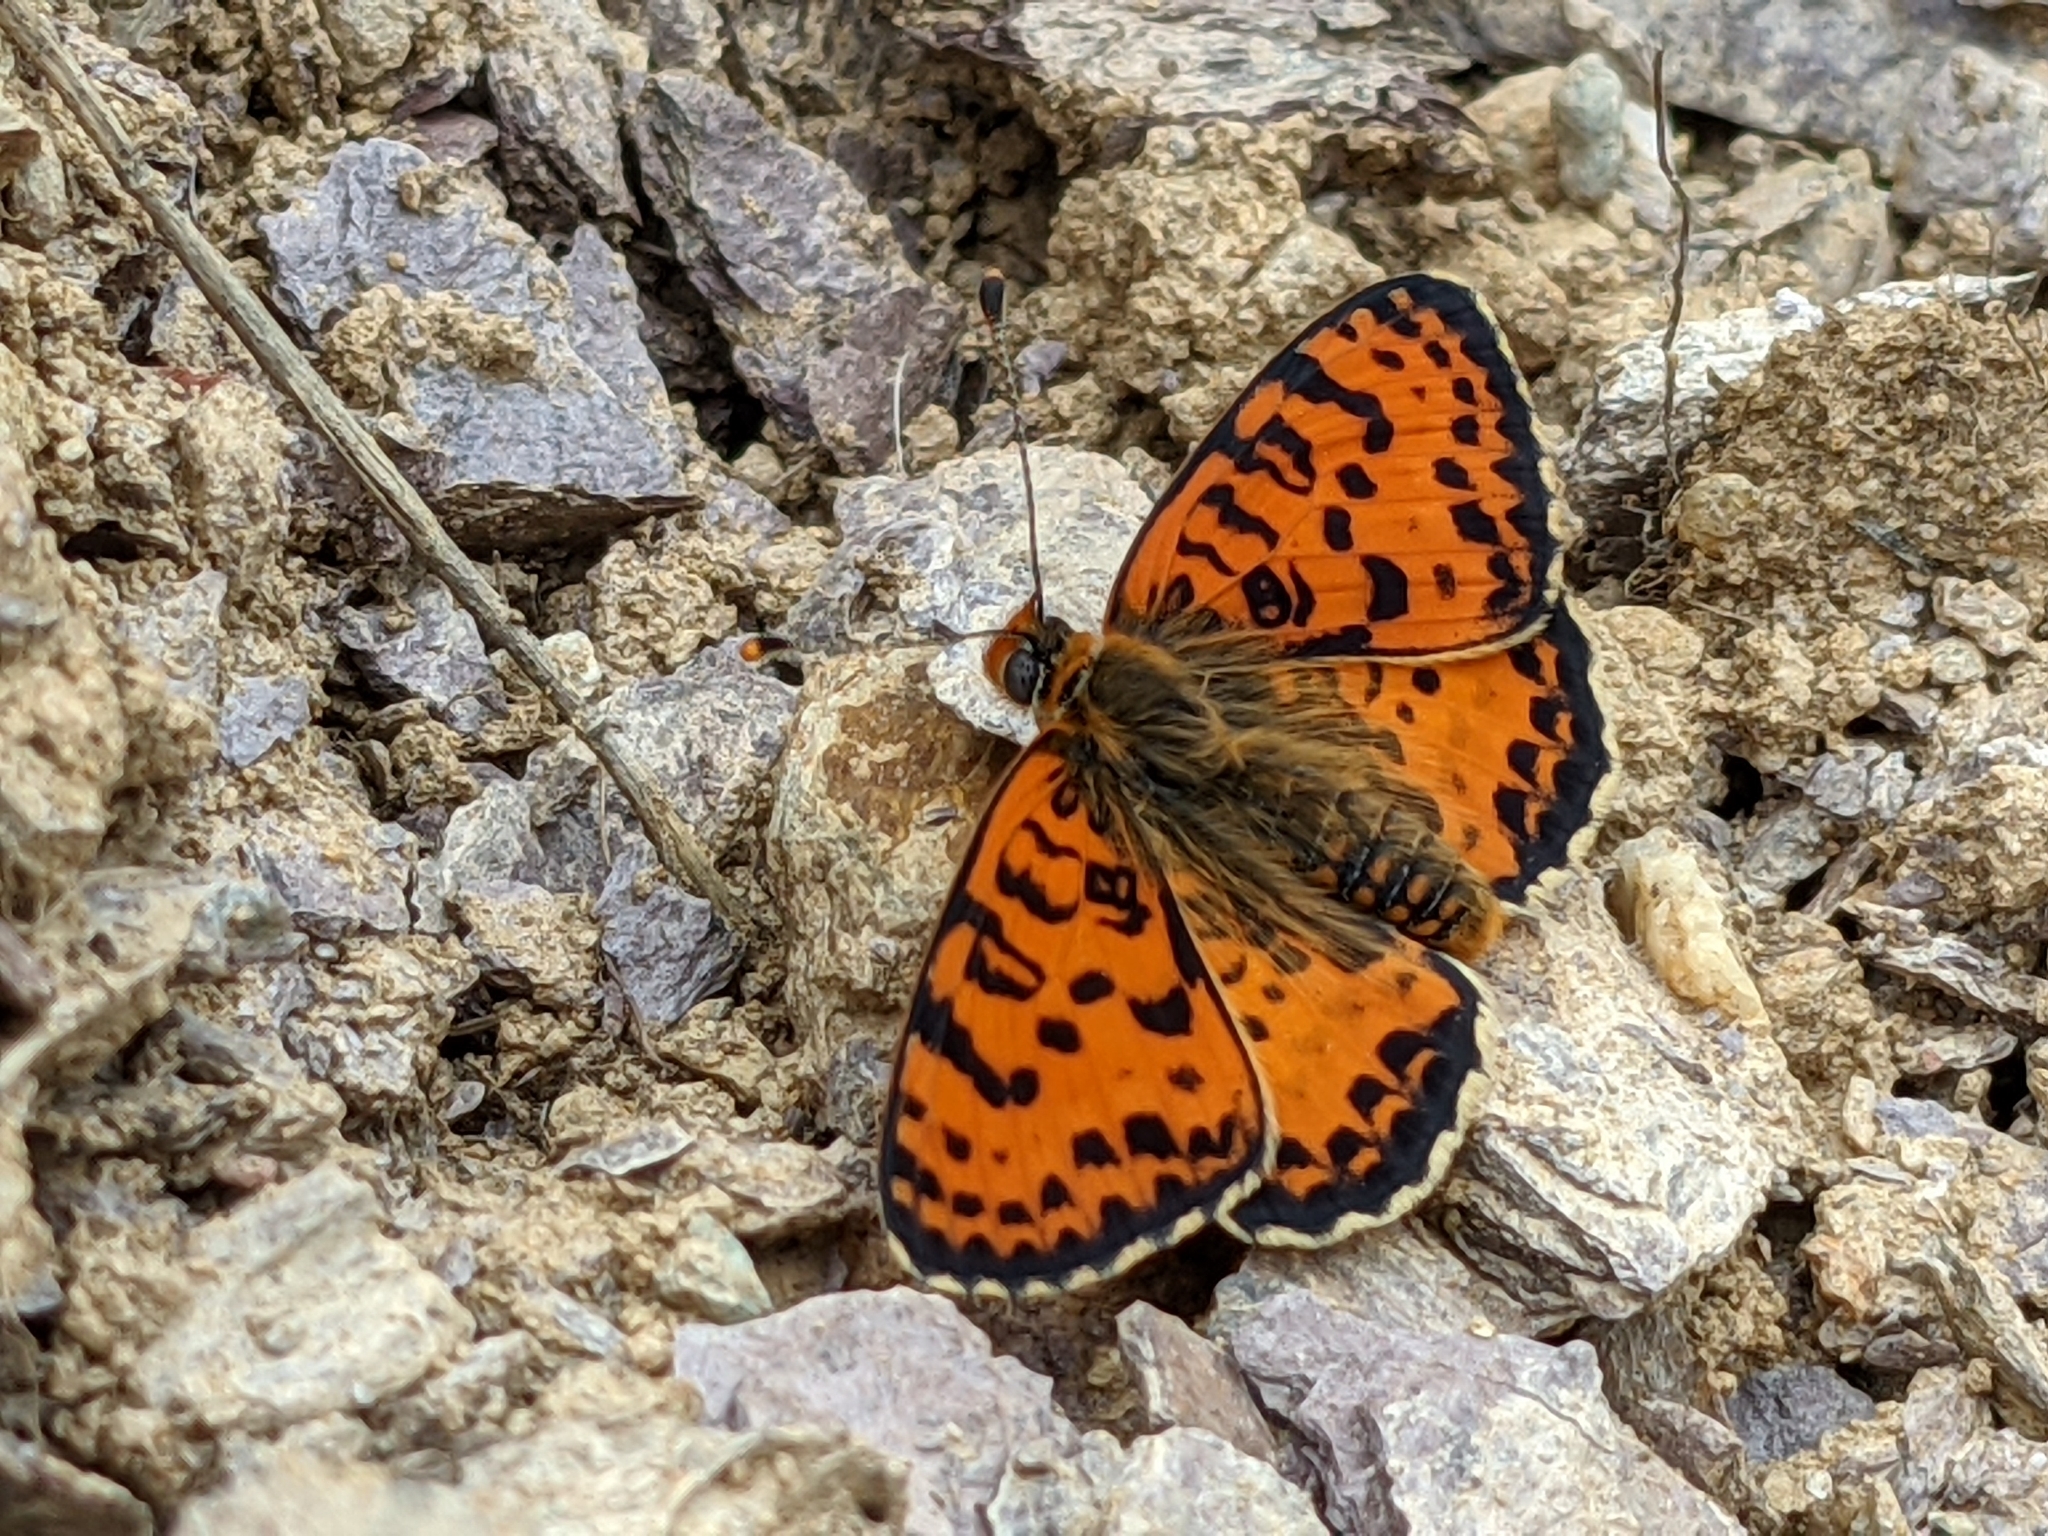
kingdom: Animalia
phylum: Arthropoda
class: Insecta
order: Lepidoptera
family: Nymphalidae
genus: Melitaea
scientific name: Melitaea didyma
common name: Spotted fritillary
